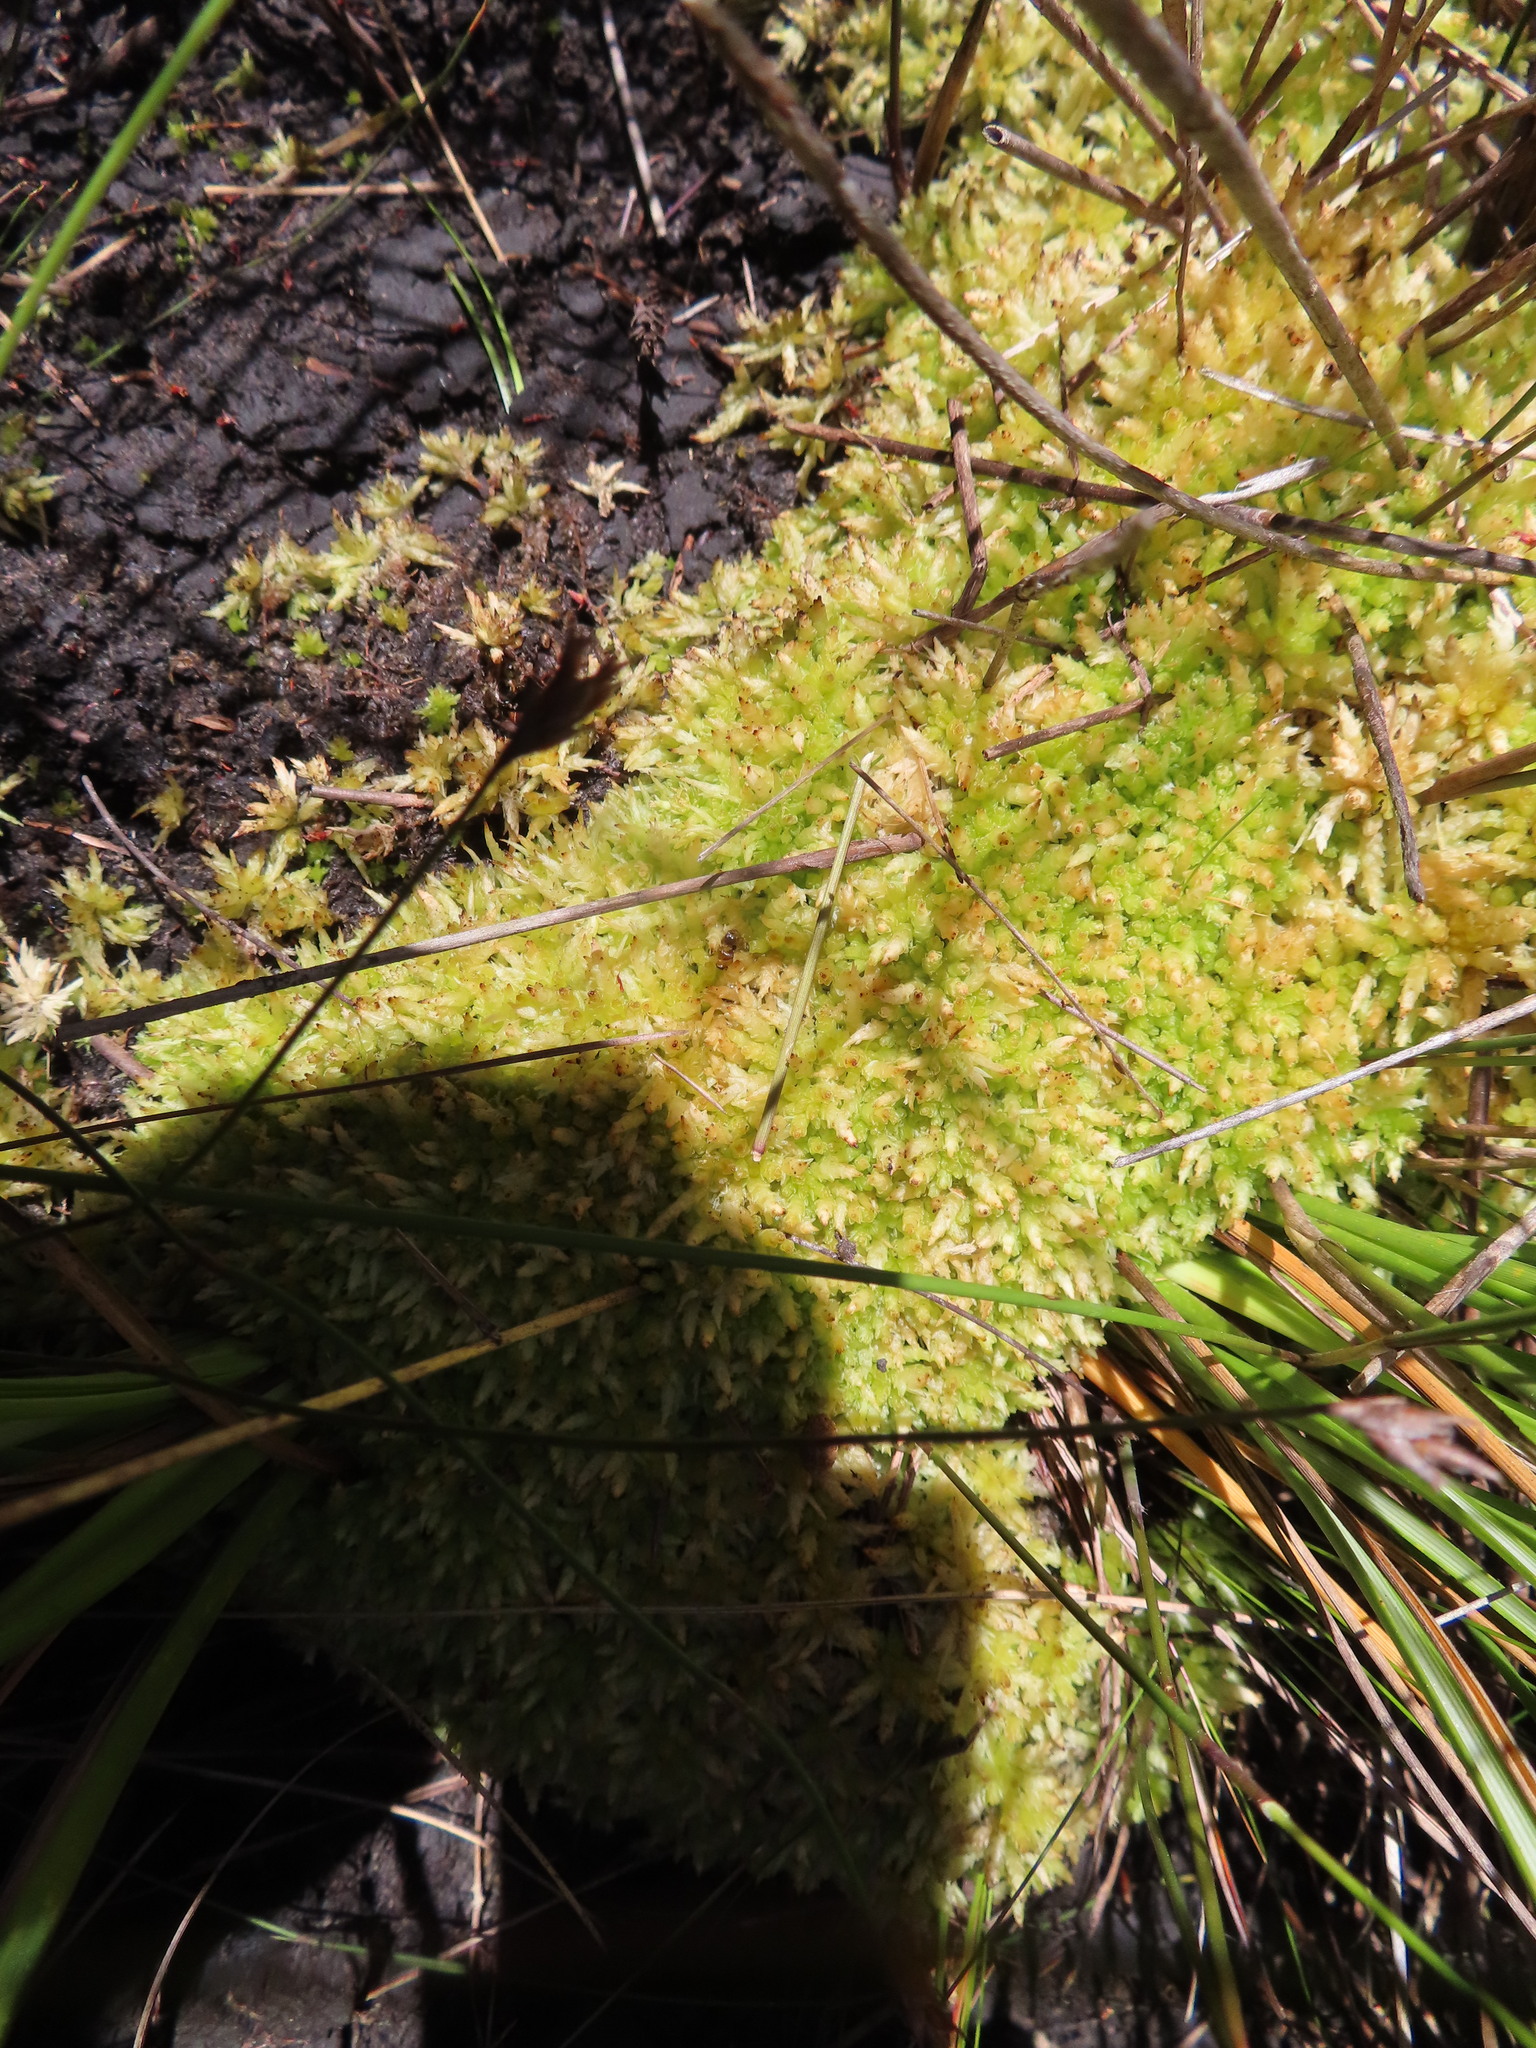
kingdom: Plantae
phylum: Bryophyta
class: Sphagnopsida
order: Sphagnales
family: Sphagnaceae
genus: Sphagnum
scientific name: Sphagnum perichaetiale
